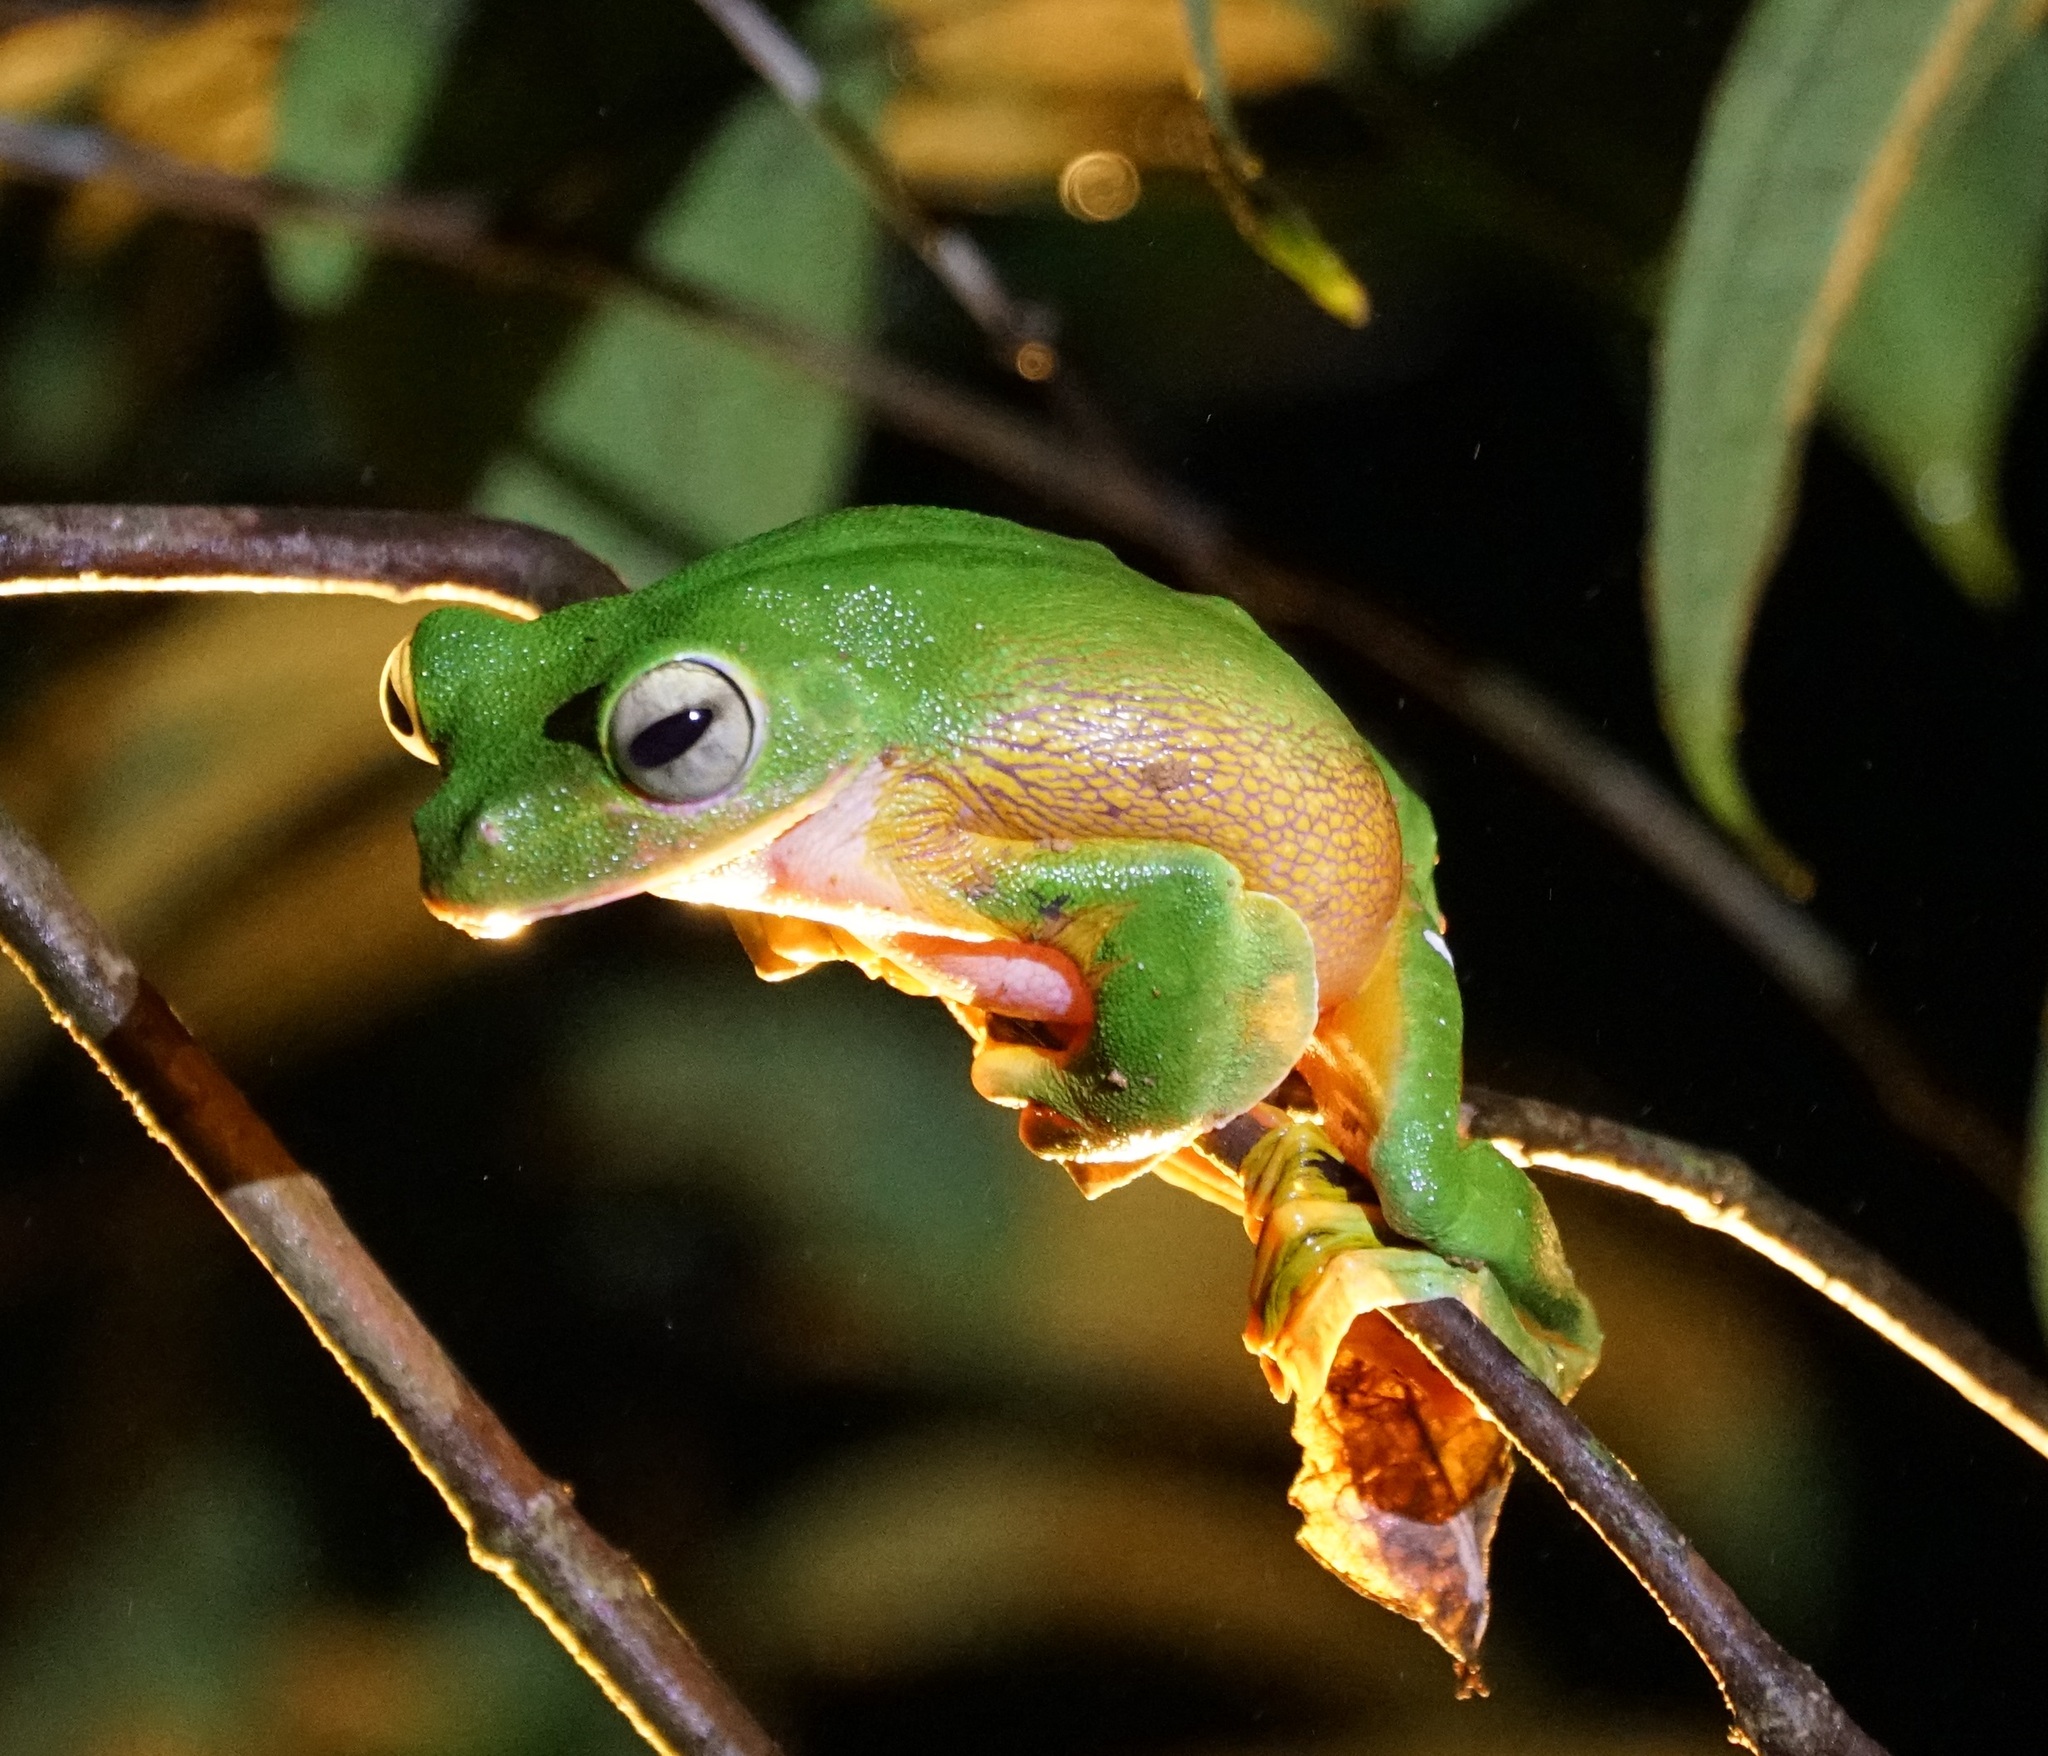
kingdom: Animalia
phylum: Chordata
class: Amphibia
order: Anura
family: Rhacophoridae
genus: Rhacophorus
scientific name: Rhacophorus nigropalmatus
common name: Wallace’s flying frog
